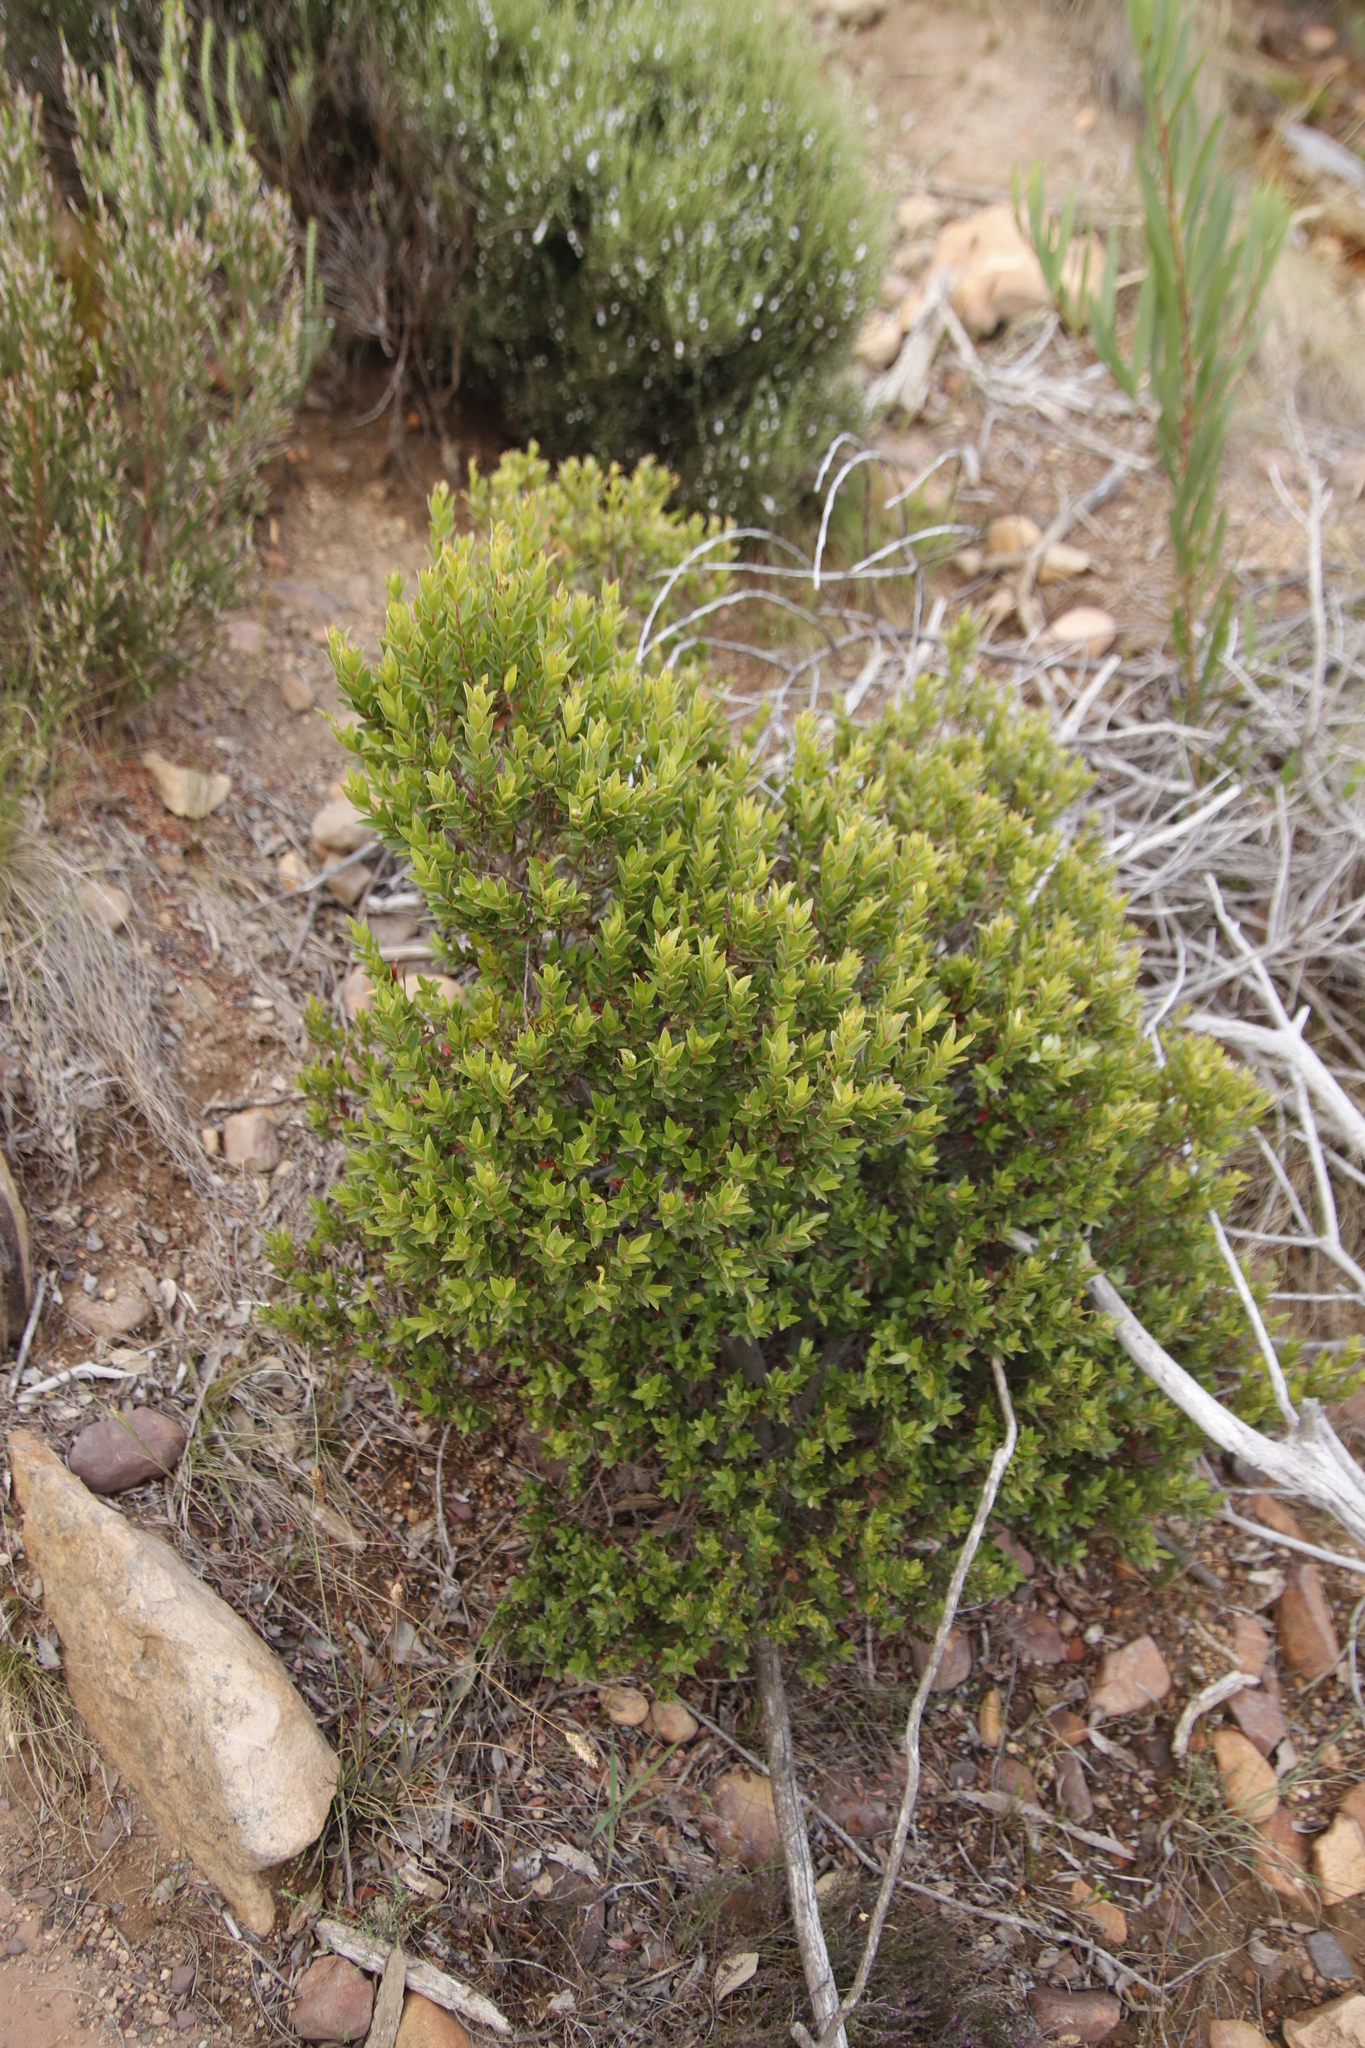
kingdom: Plantae
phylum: Tracheophyta
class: Magnoliopsida
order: Ericales
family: Ebenaceae
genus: Diospyros
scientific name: Diospyros glabra
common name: Fynbos star apple
